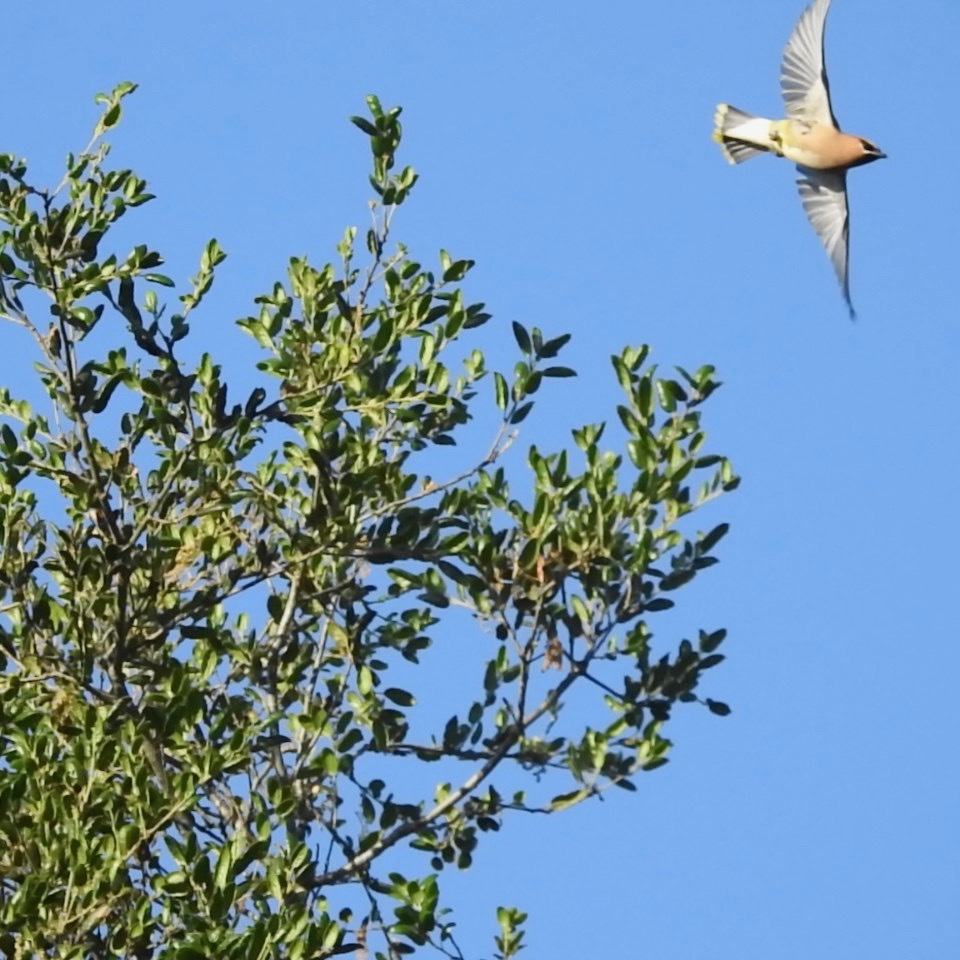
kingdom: Animalia
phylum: Chordata
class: Aves
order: Passeriformes
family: Bombycillidae
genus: Bombycilla
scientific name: Bombycilla cedrorum
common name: Cedar waxwing
